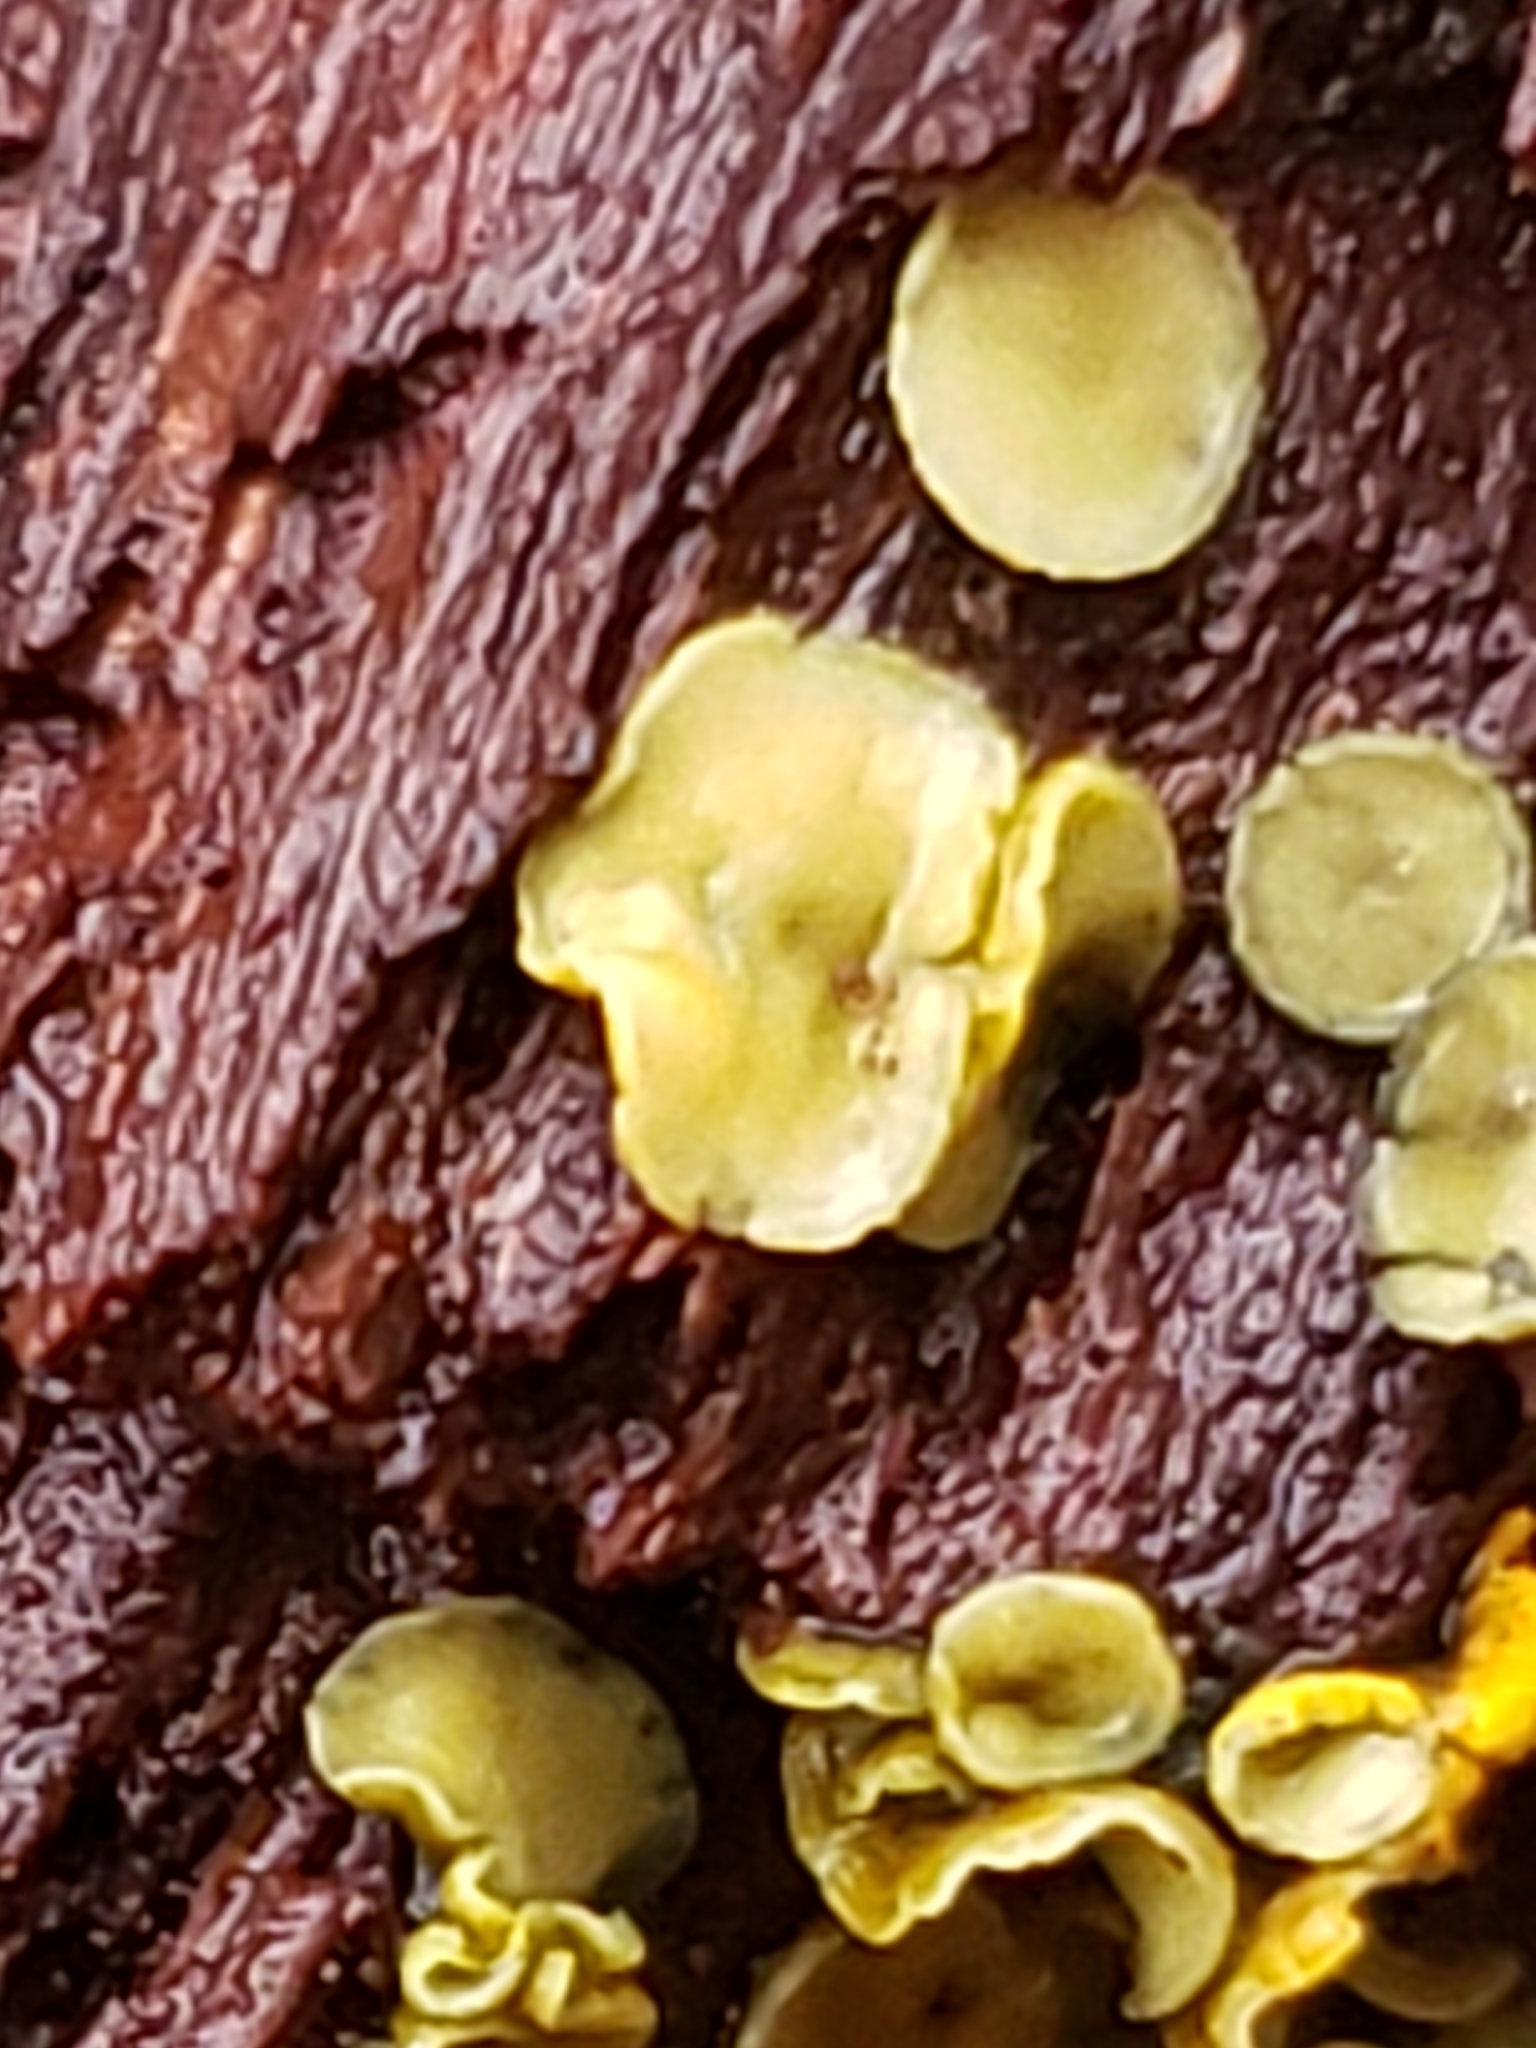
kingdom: Fungi
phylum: Ascomycota
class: Leotiomycetes
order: Helotiales
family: Chlorospleniaceae
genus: Chlorosplenium
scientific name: Chlorosplenium chlora
